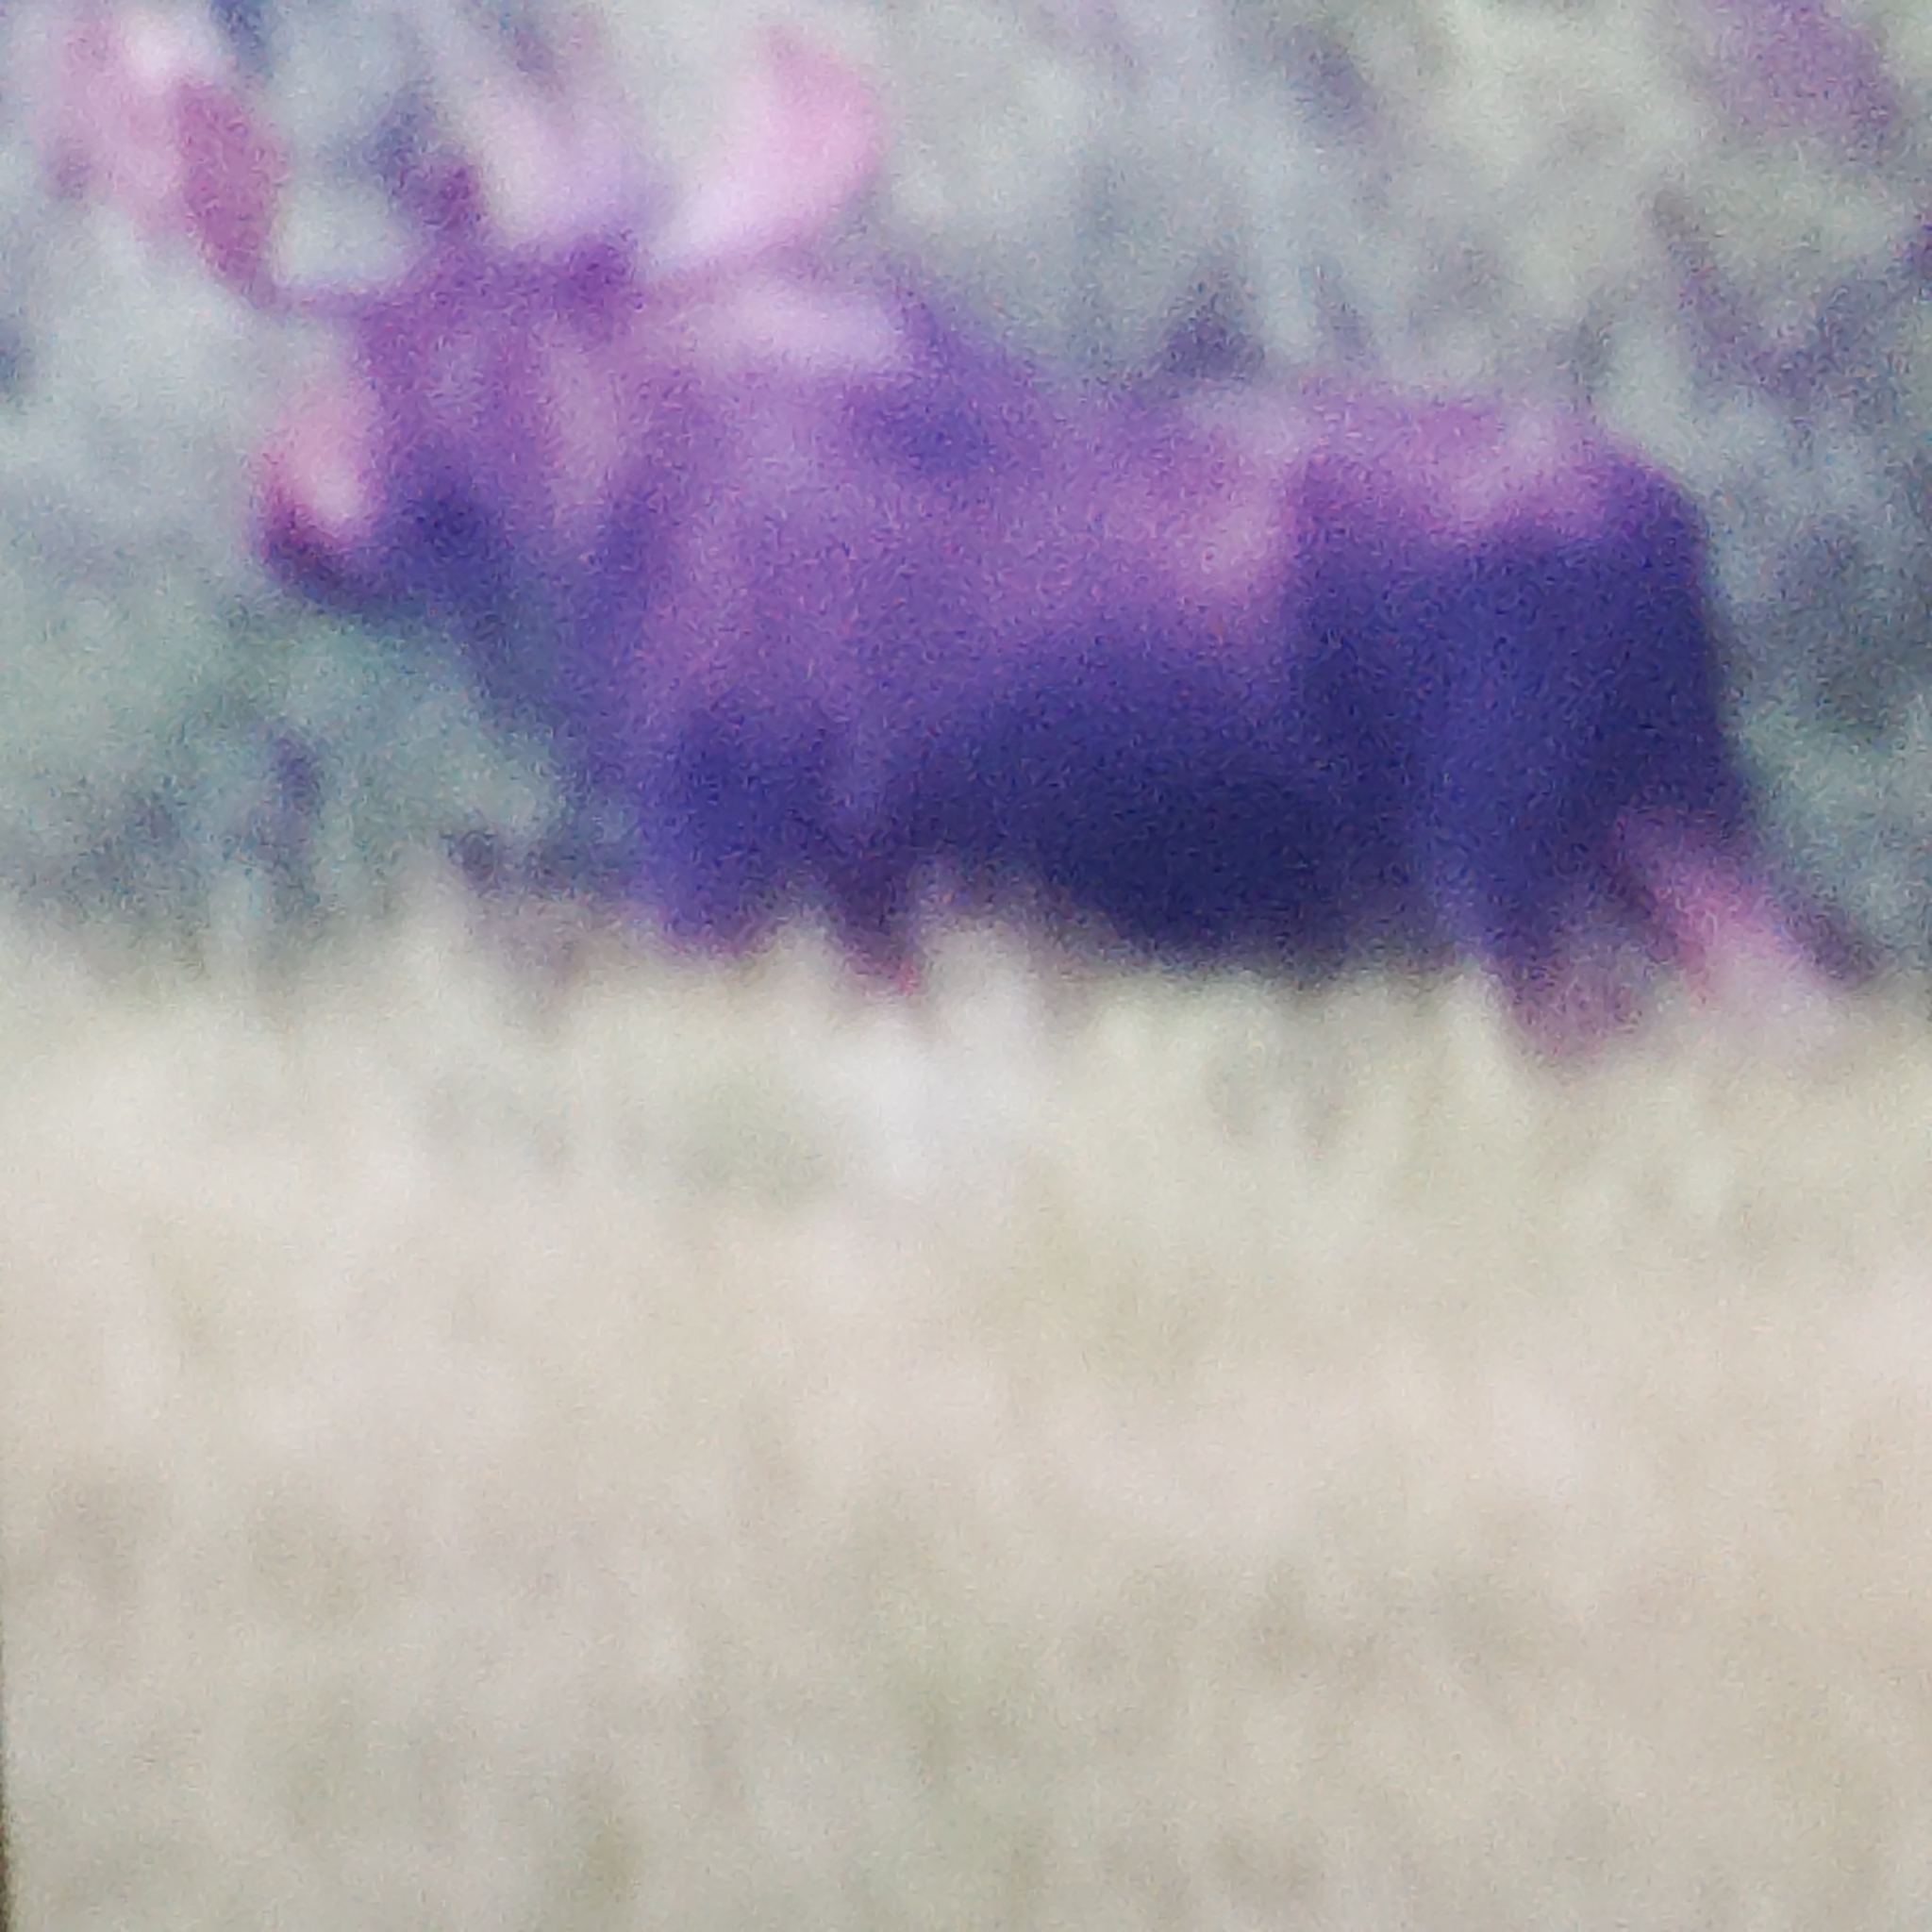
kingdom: Animalia
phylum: Chordata
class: Mammalia
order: Artiodactyla
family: Cervidae
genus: Alces
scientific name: Alces alces
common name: Moose
